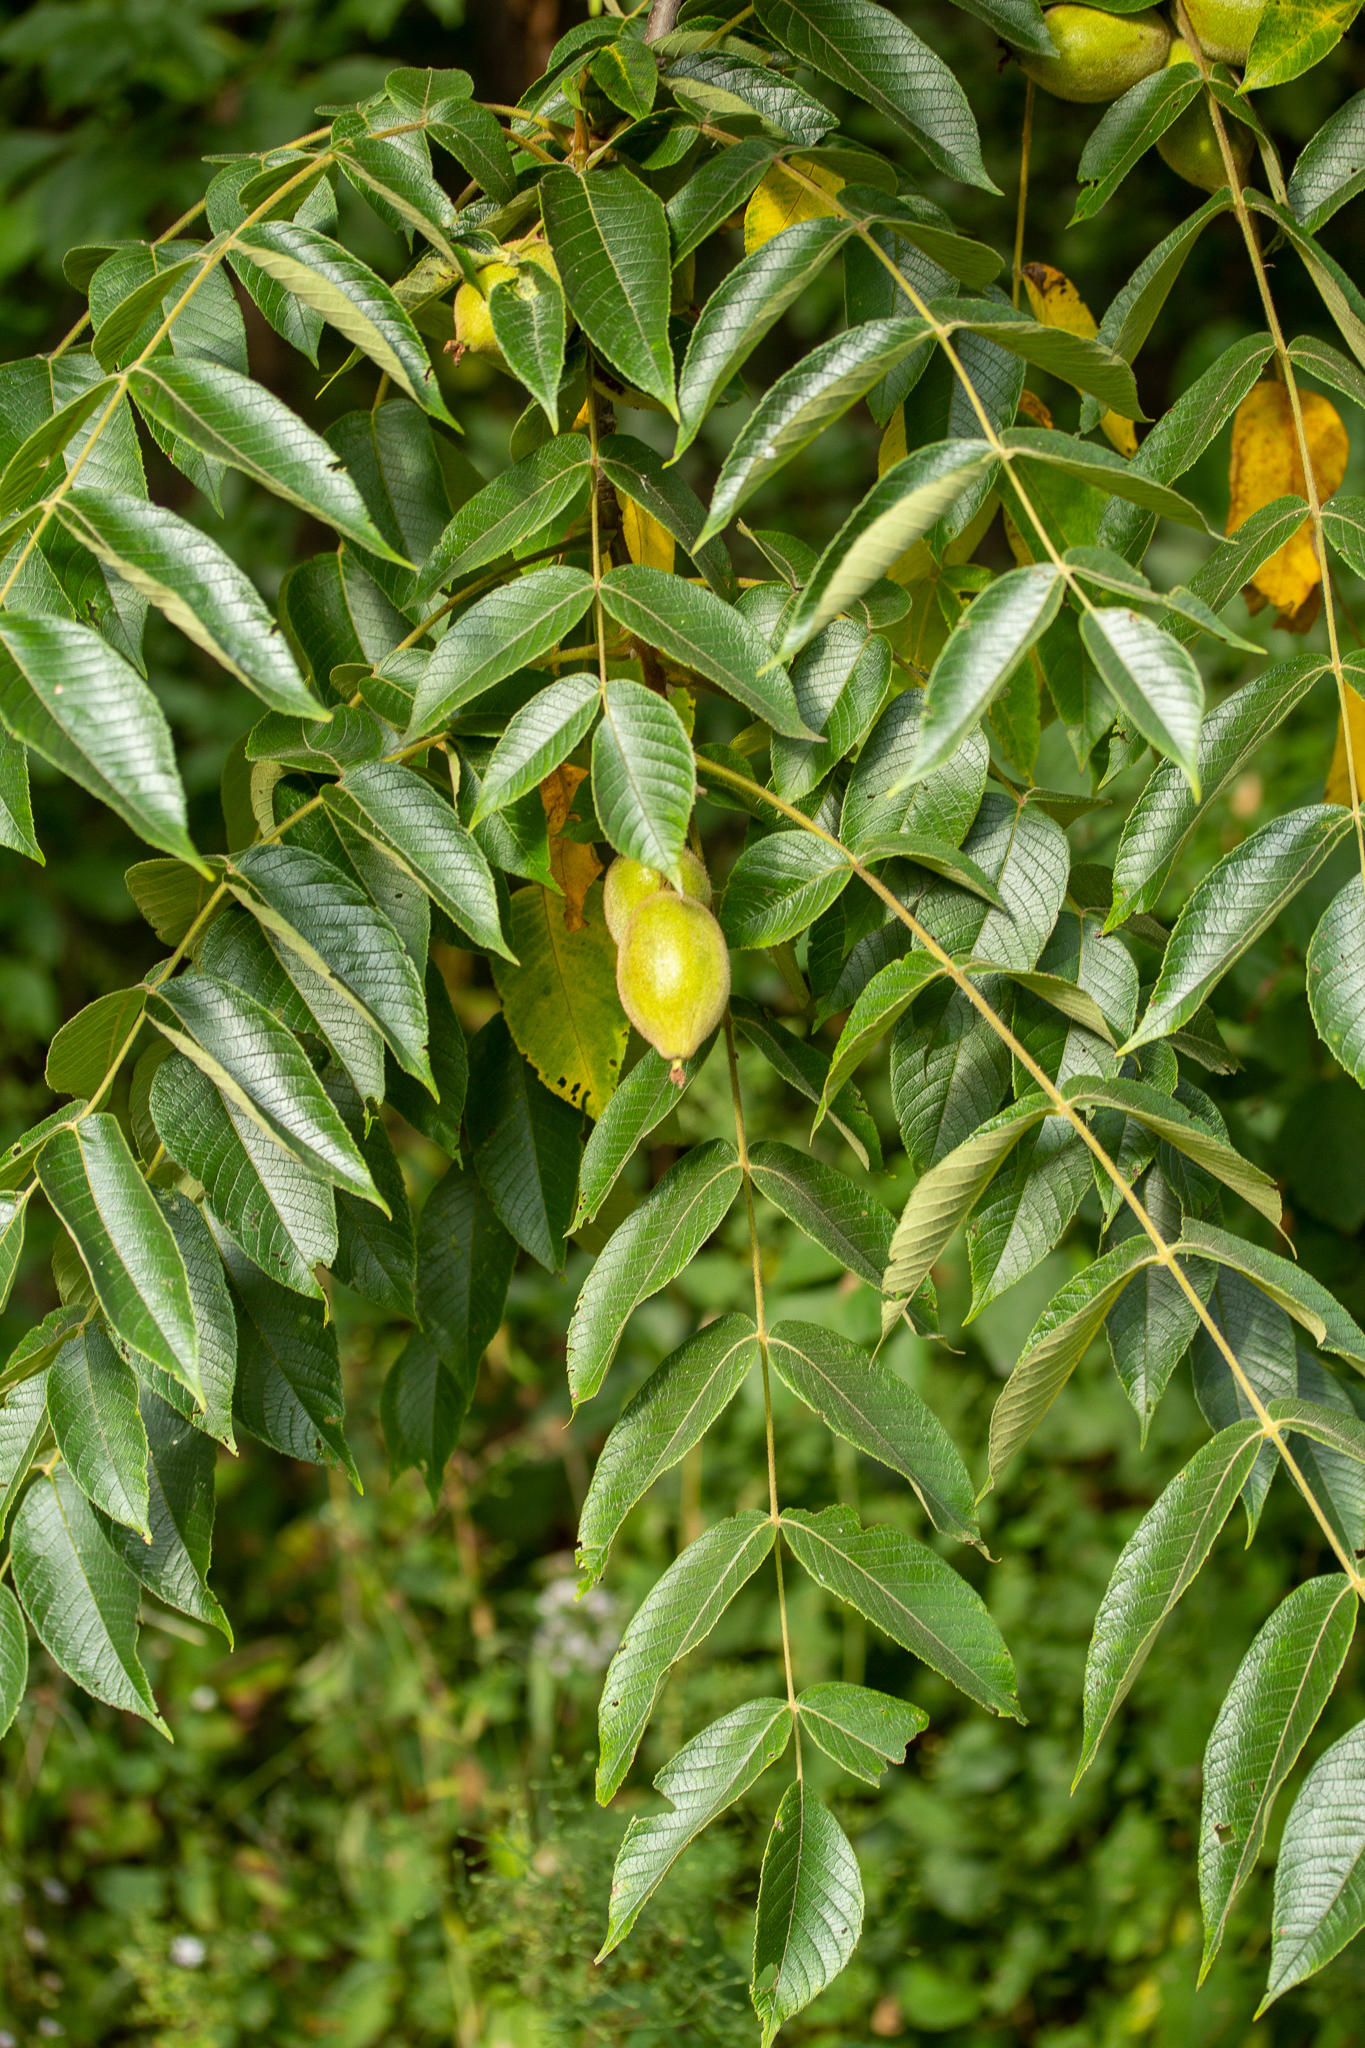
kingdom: Plantae
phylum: Tracheophyta
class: Magnoliopsida
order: Fagales
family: Juglandaceae
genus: Juglans
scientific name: Juglans cinerea
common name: Butternut
